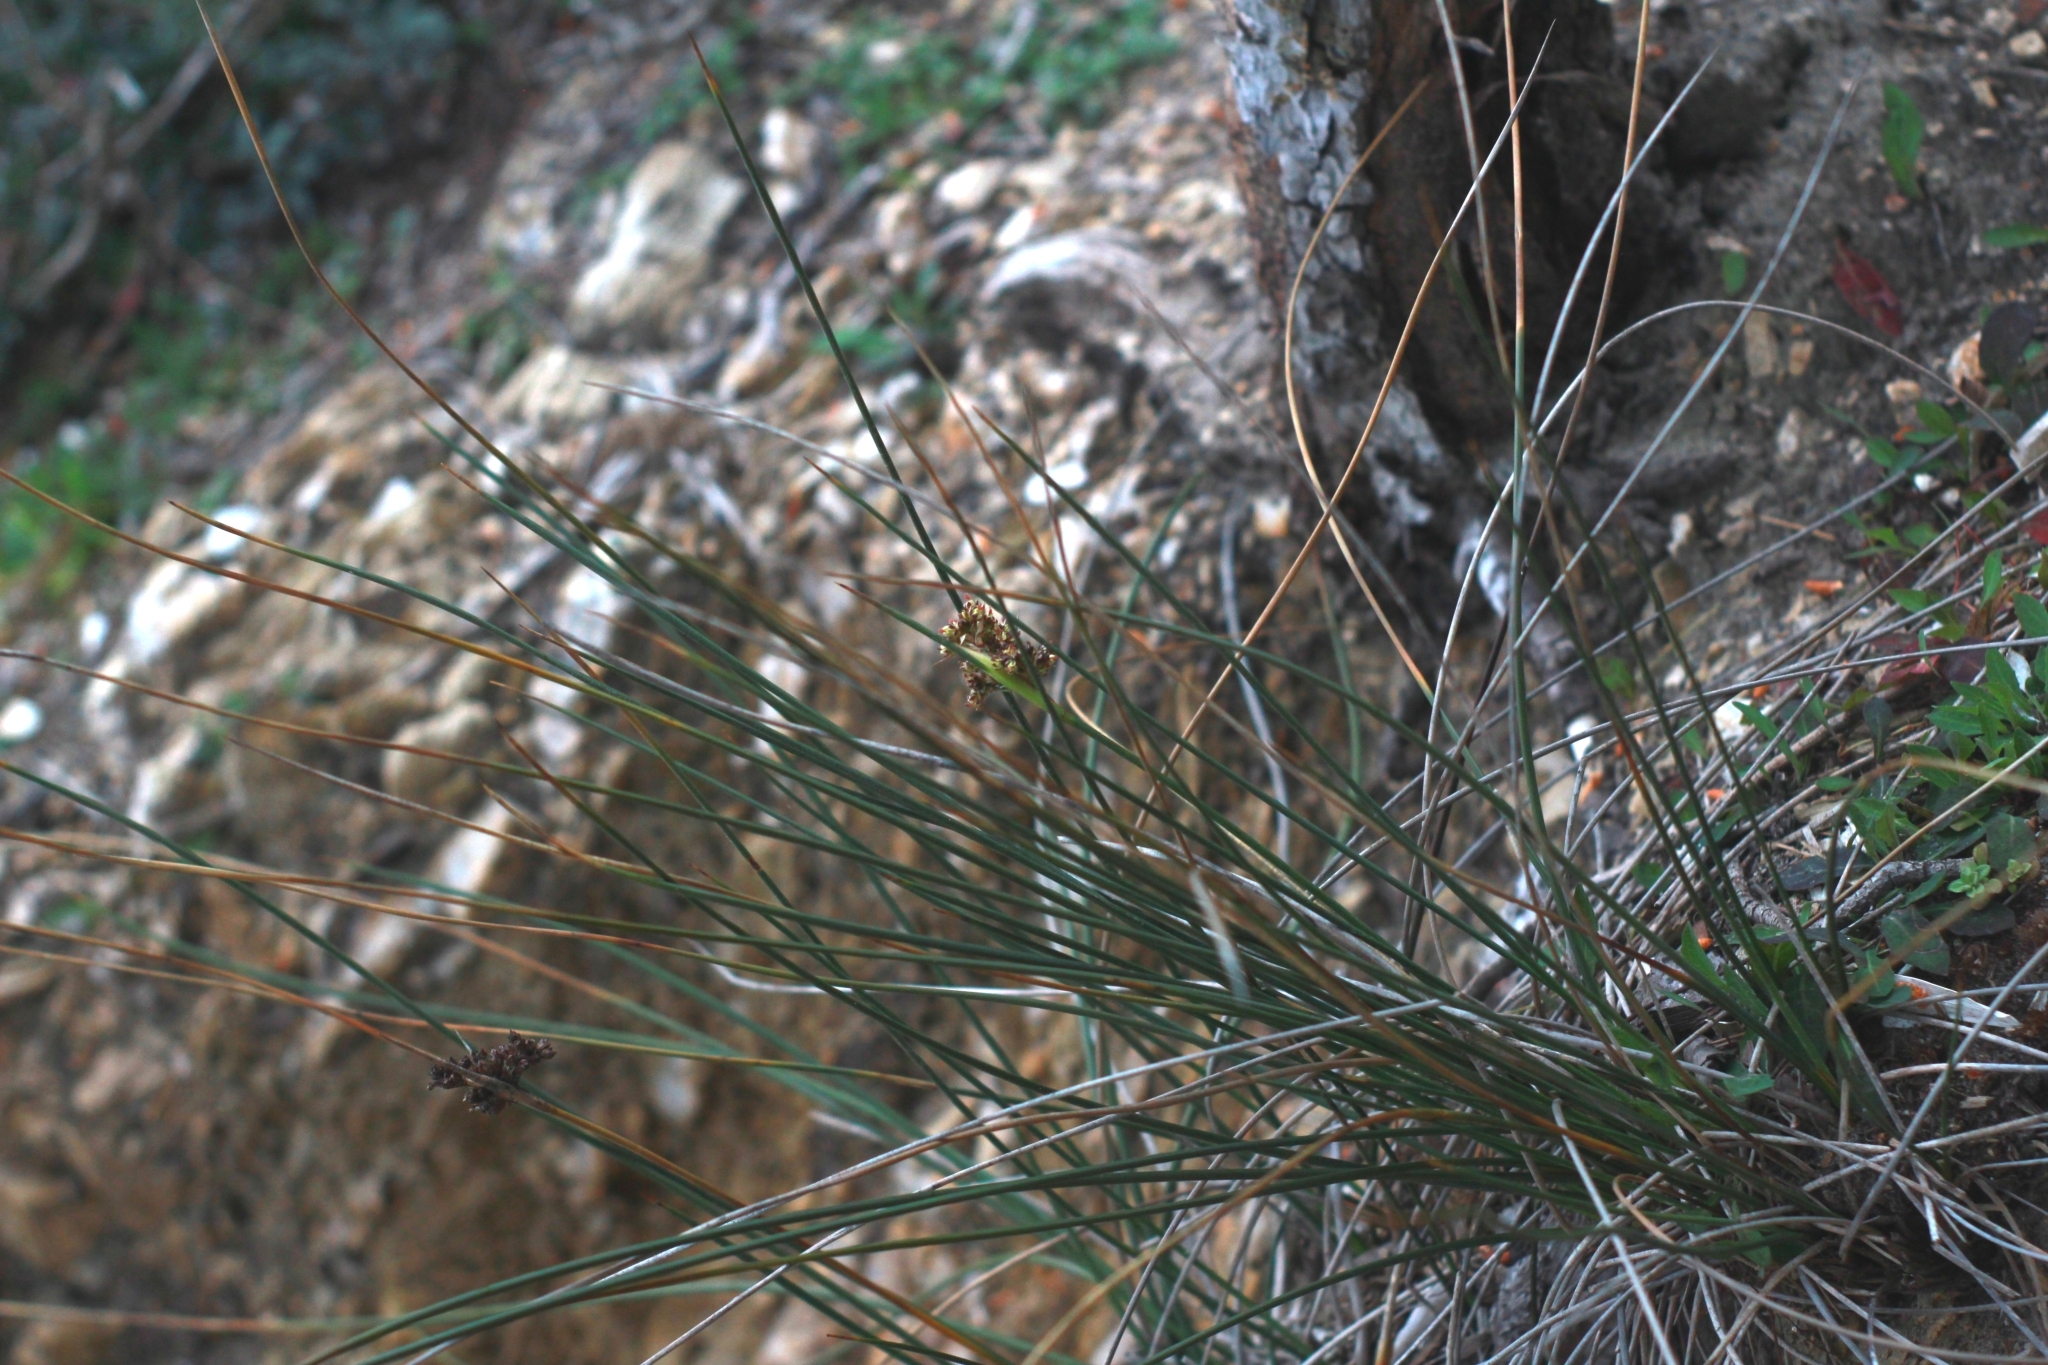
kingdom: Plantae
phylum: Tracheophyta
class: Liliopsida
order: Poales
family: Juncaceae
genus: Juncus
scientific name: Juncus acutus
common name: Sharp rush
